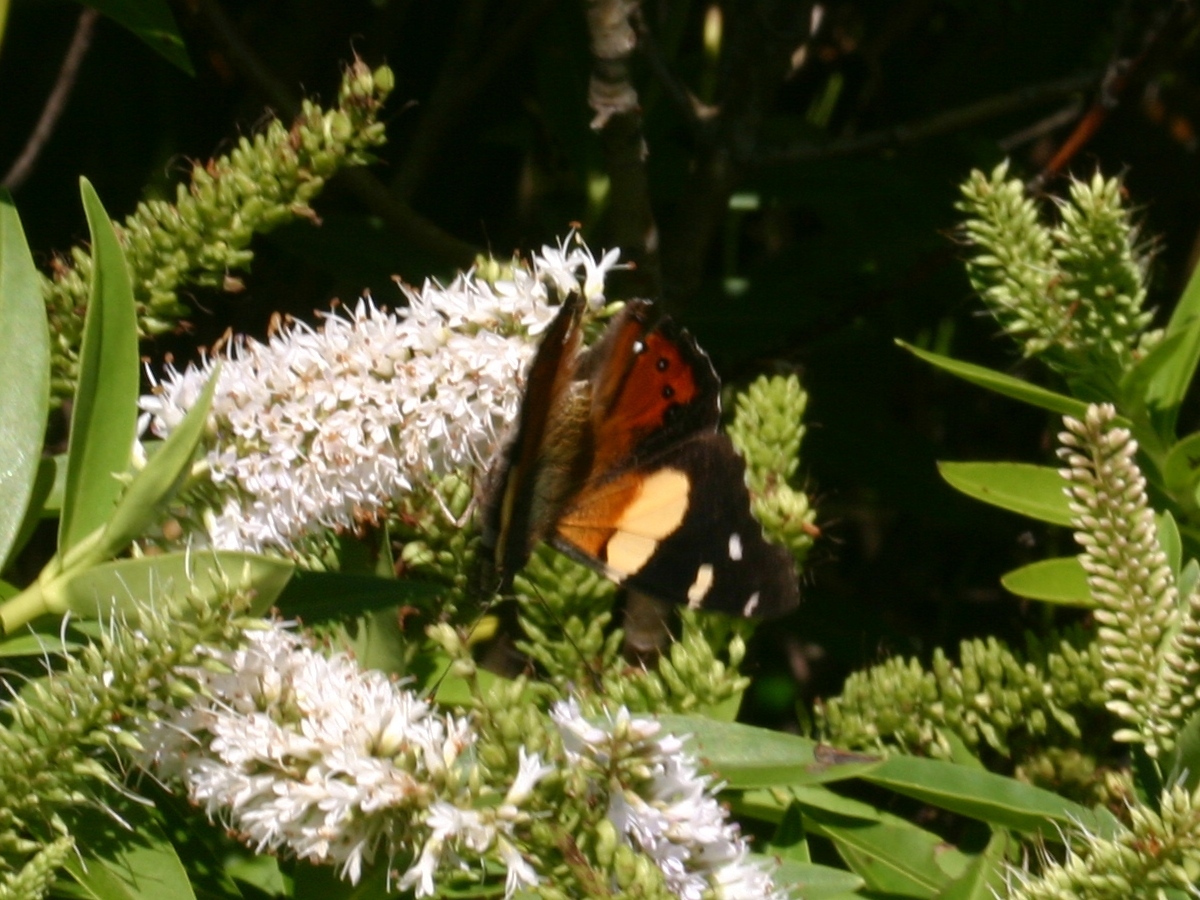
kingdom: Animalia
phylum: Arthropoda
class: Insecta
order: Lepidoptera
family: Nymphalidae
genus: Vanessa
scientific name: Vanessa itea
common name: Yellow admiral
